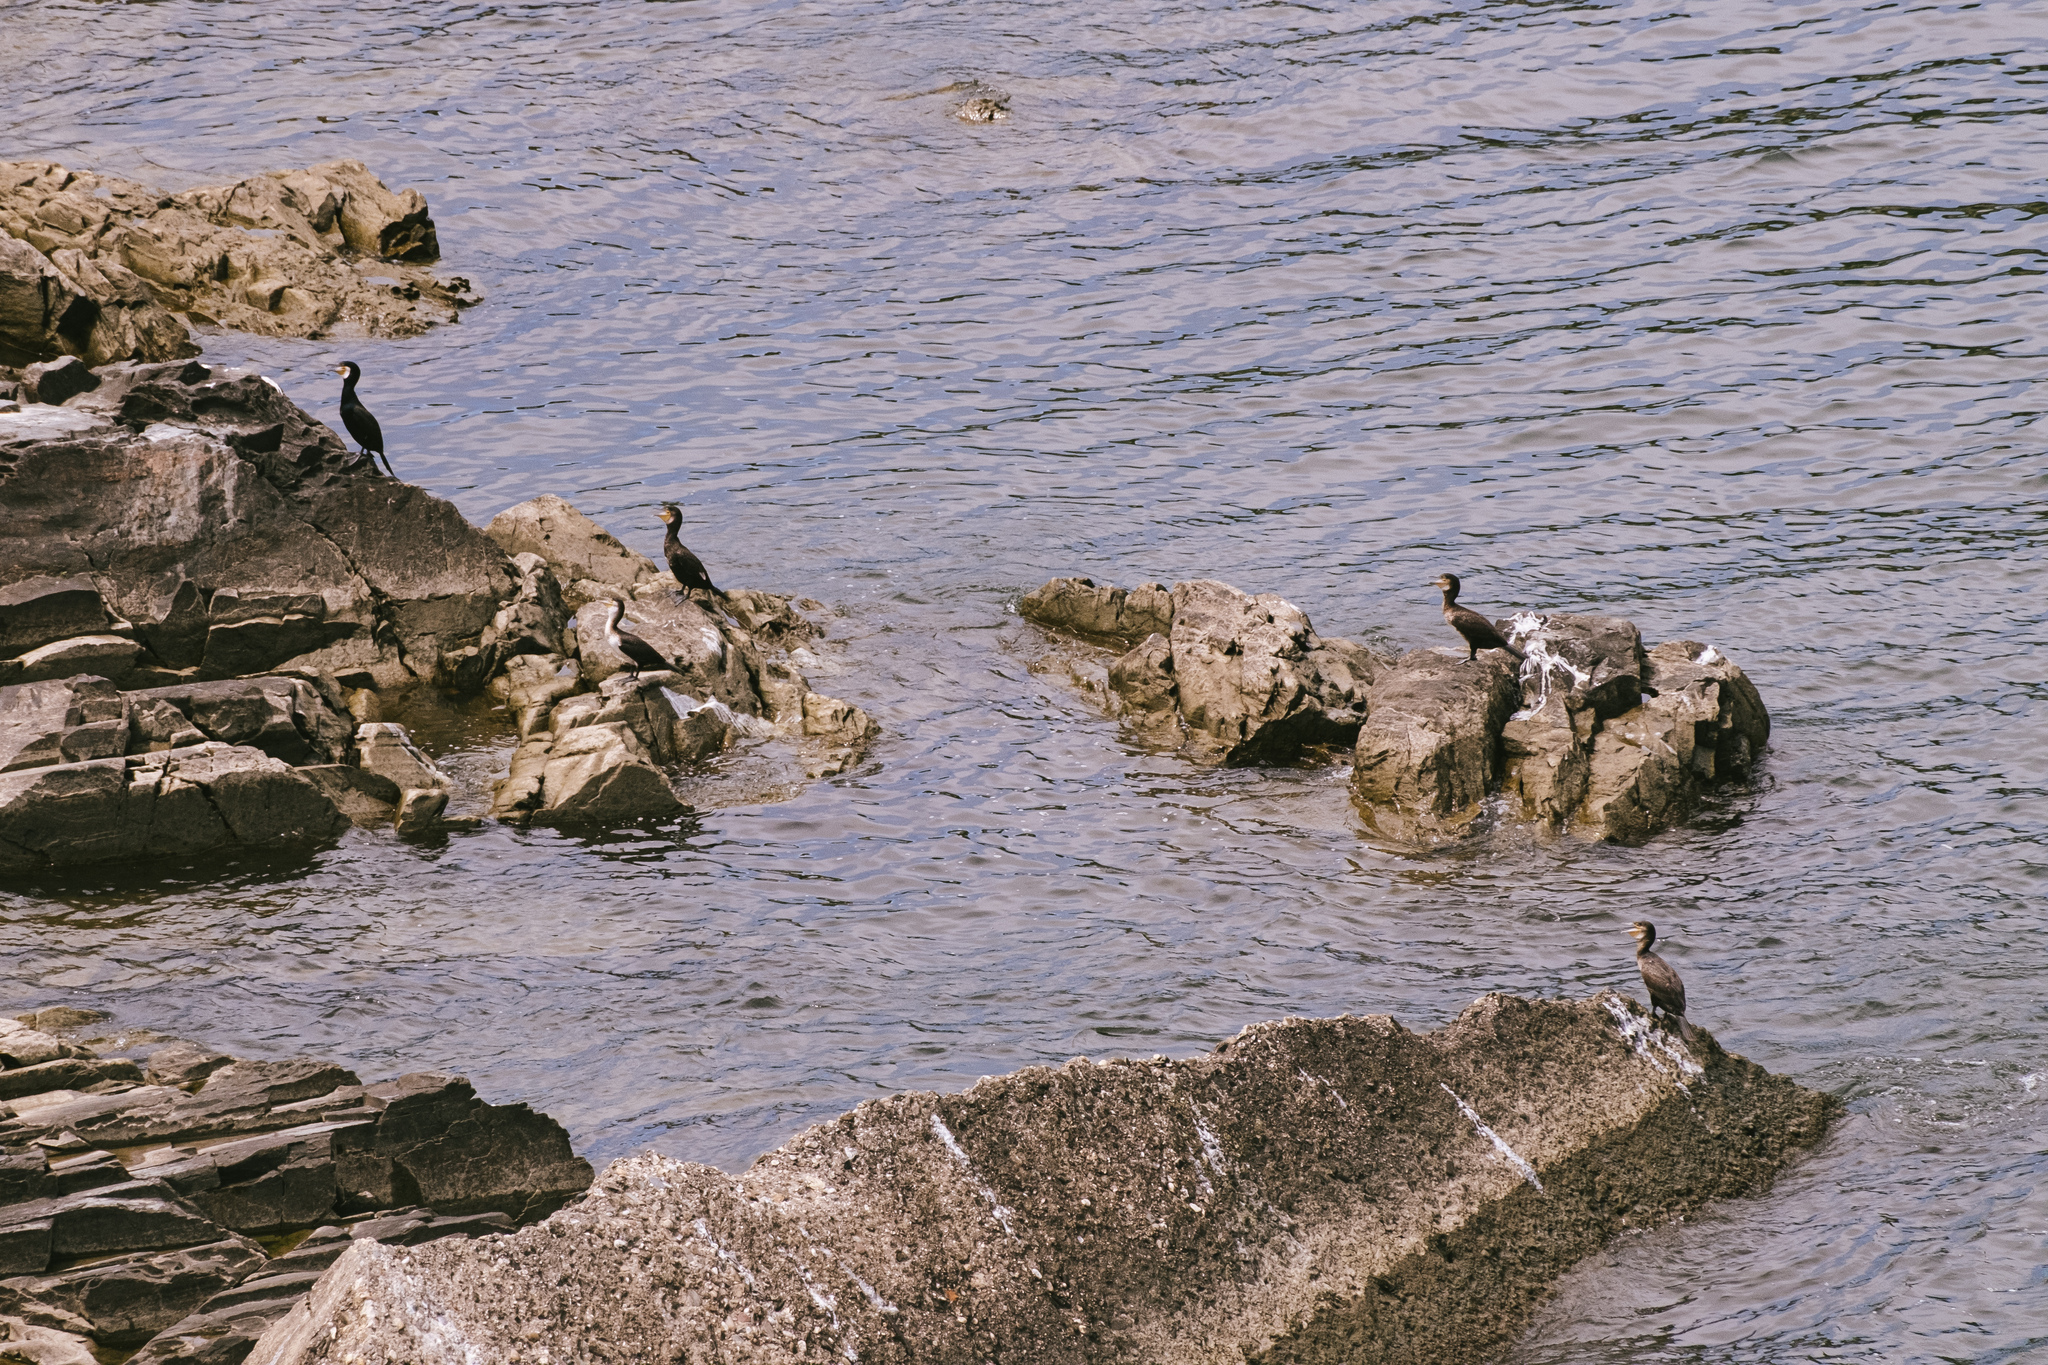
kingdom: Animalia
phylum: Chordata
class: Aves
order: Suliformes
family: Phalacrocoracidae
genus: Phalacrocorax
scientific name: Phalacrocorax carbo
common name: Great cormorant
